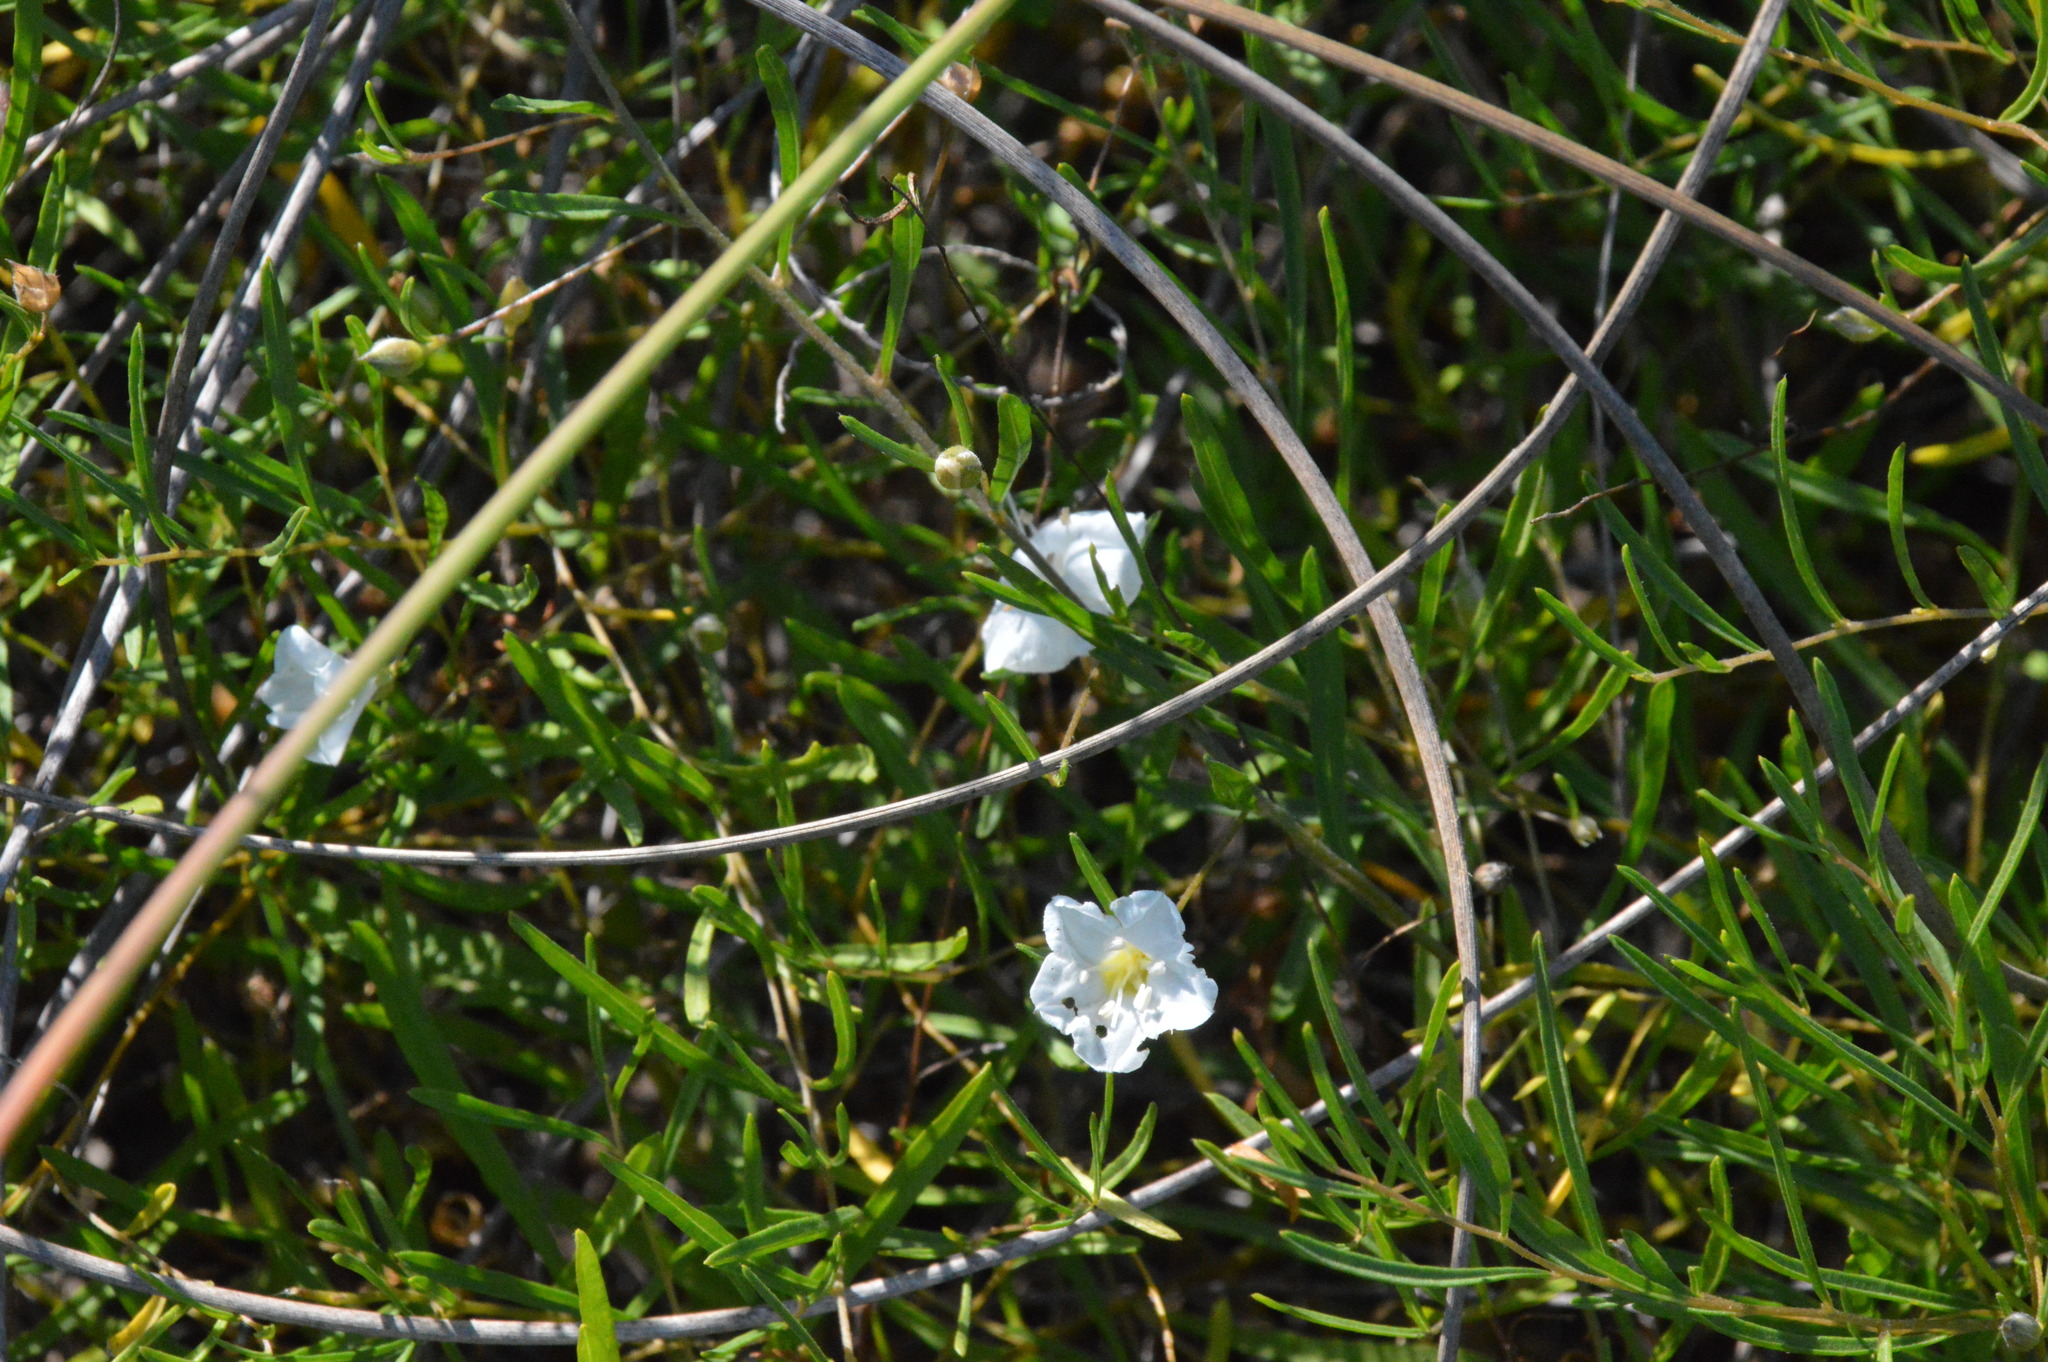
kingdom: Plantae
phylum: Tracheophyta
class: Magnoliopsida
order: Solanales
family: Convolvulaceae
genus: Stylisma
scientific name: Stylisma pickeringii
